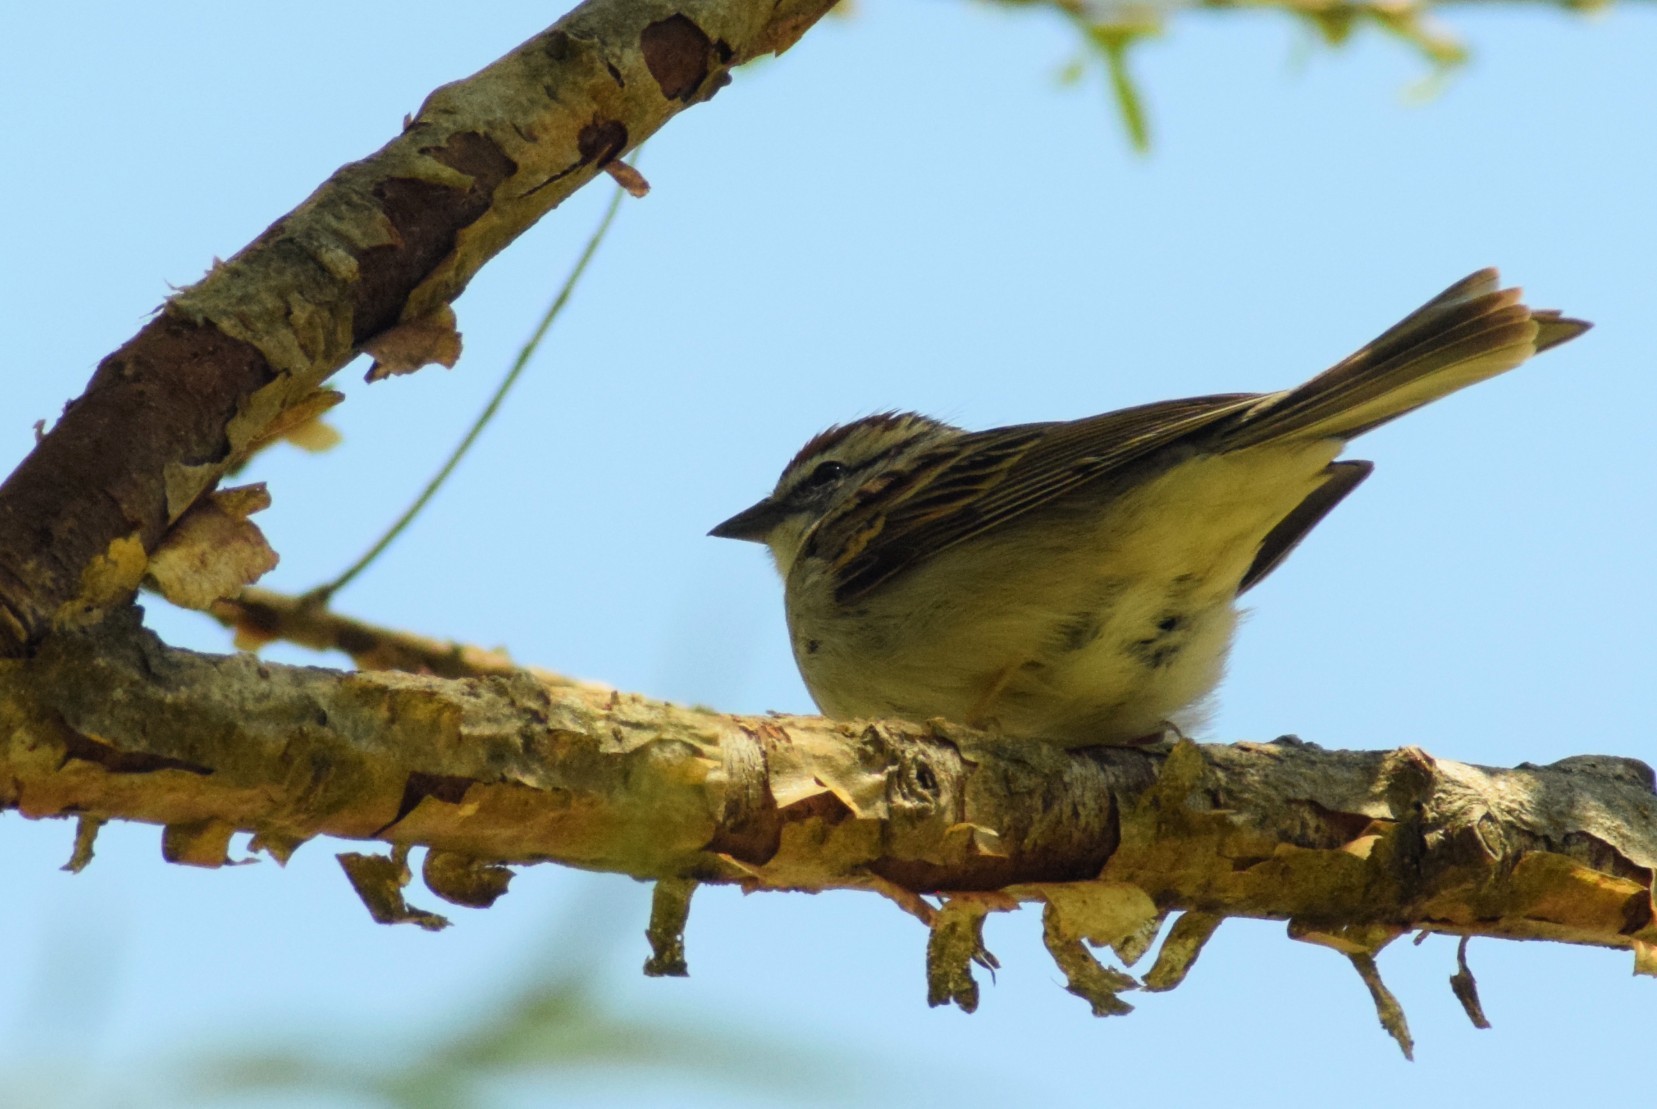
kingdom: Animalia
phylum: Chordata
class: Aves
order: Passeriformes
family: Passerellidae
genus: Spizella
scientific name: Spizella passerina
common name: Chipping sparrow
